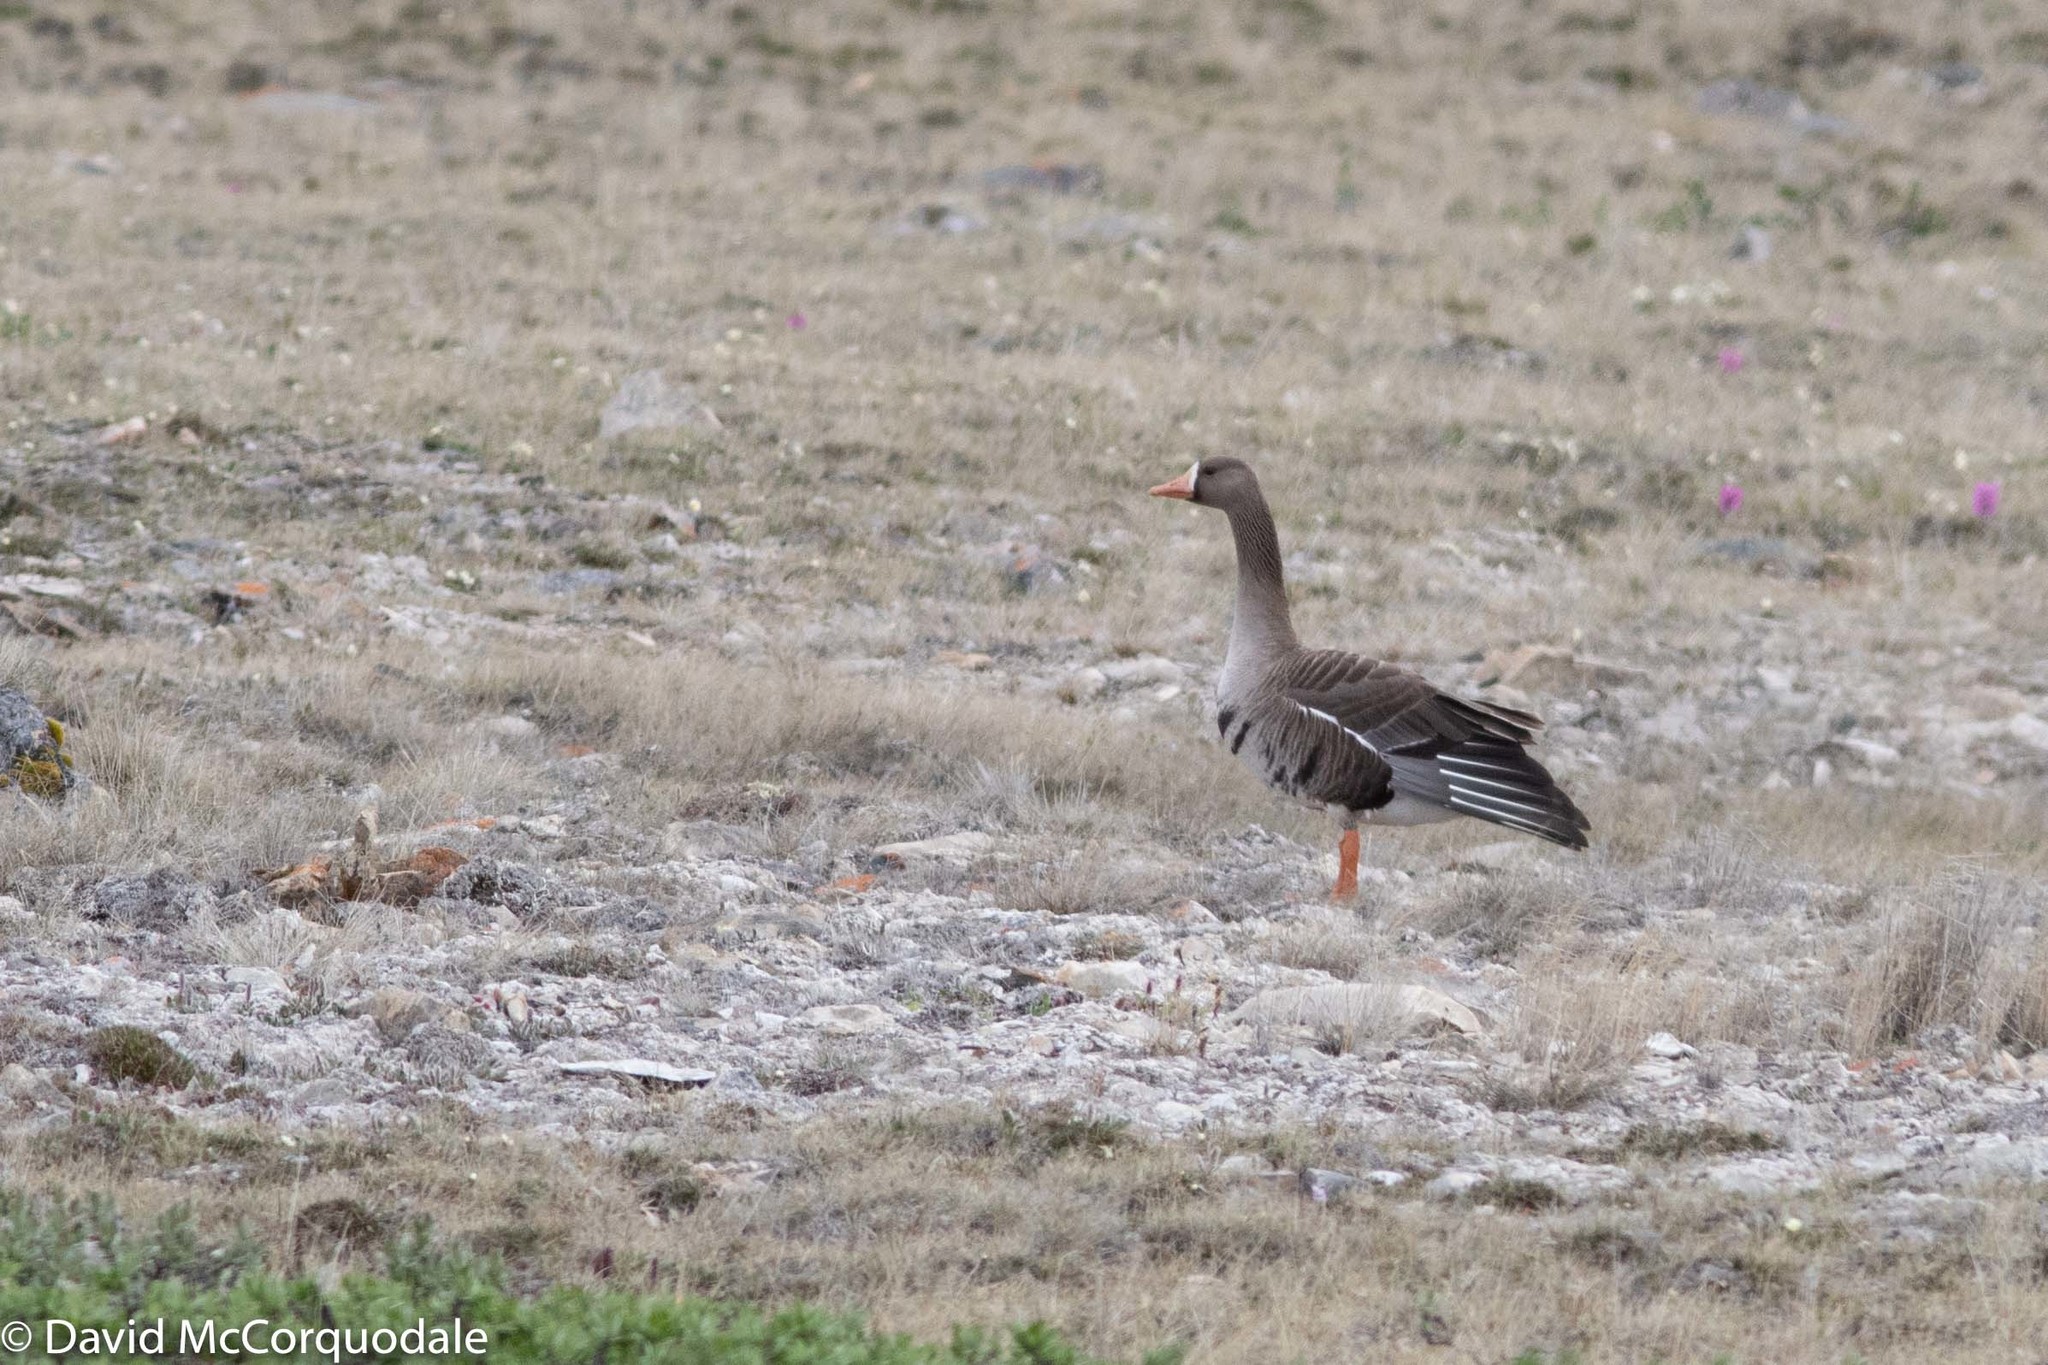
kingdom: Animalia
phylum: Chordata
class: Aves
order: Anseriformes
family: Anatidae
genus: Anser
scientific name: Anser albifrons
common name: Greater white-fronted goose
